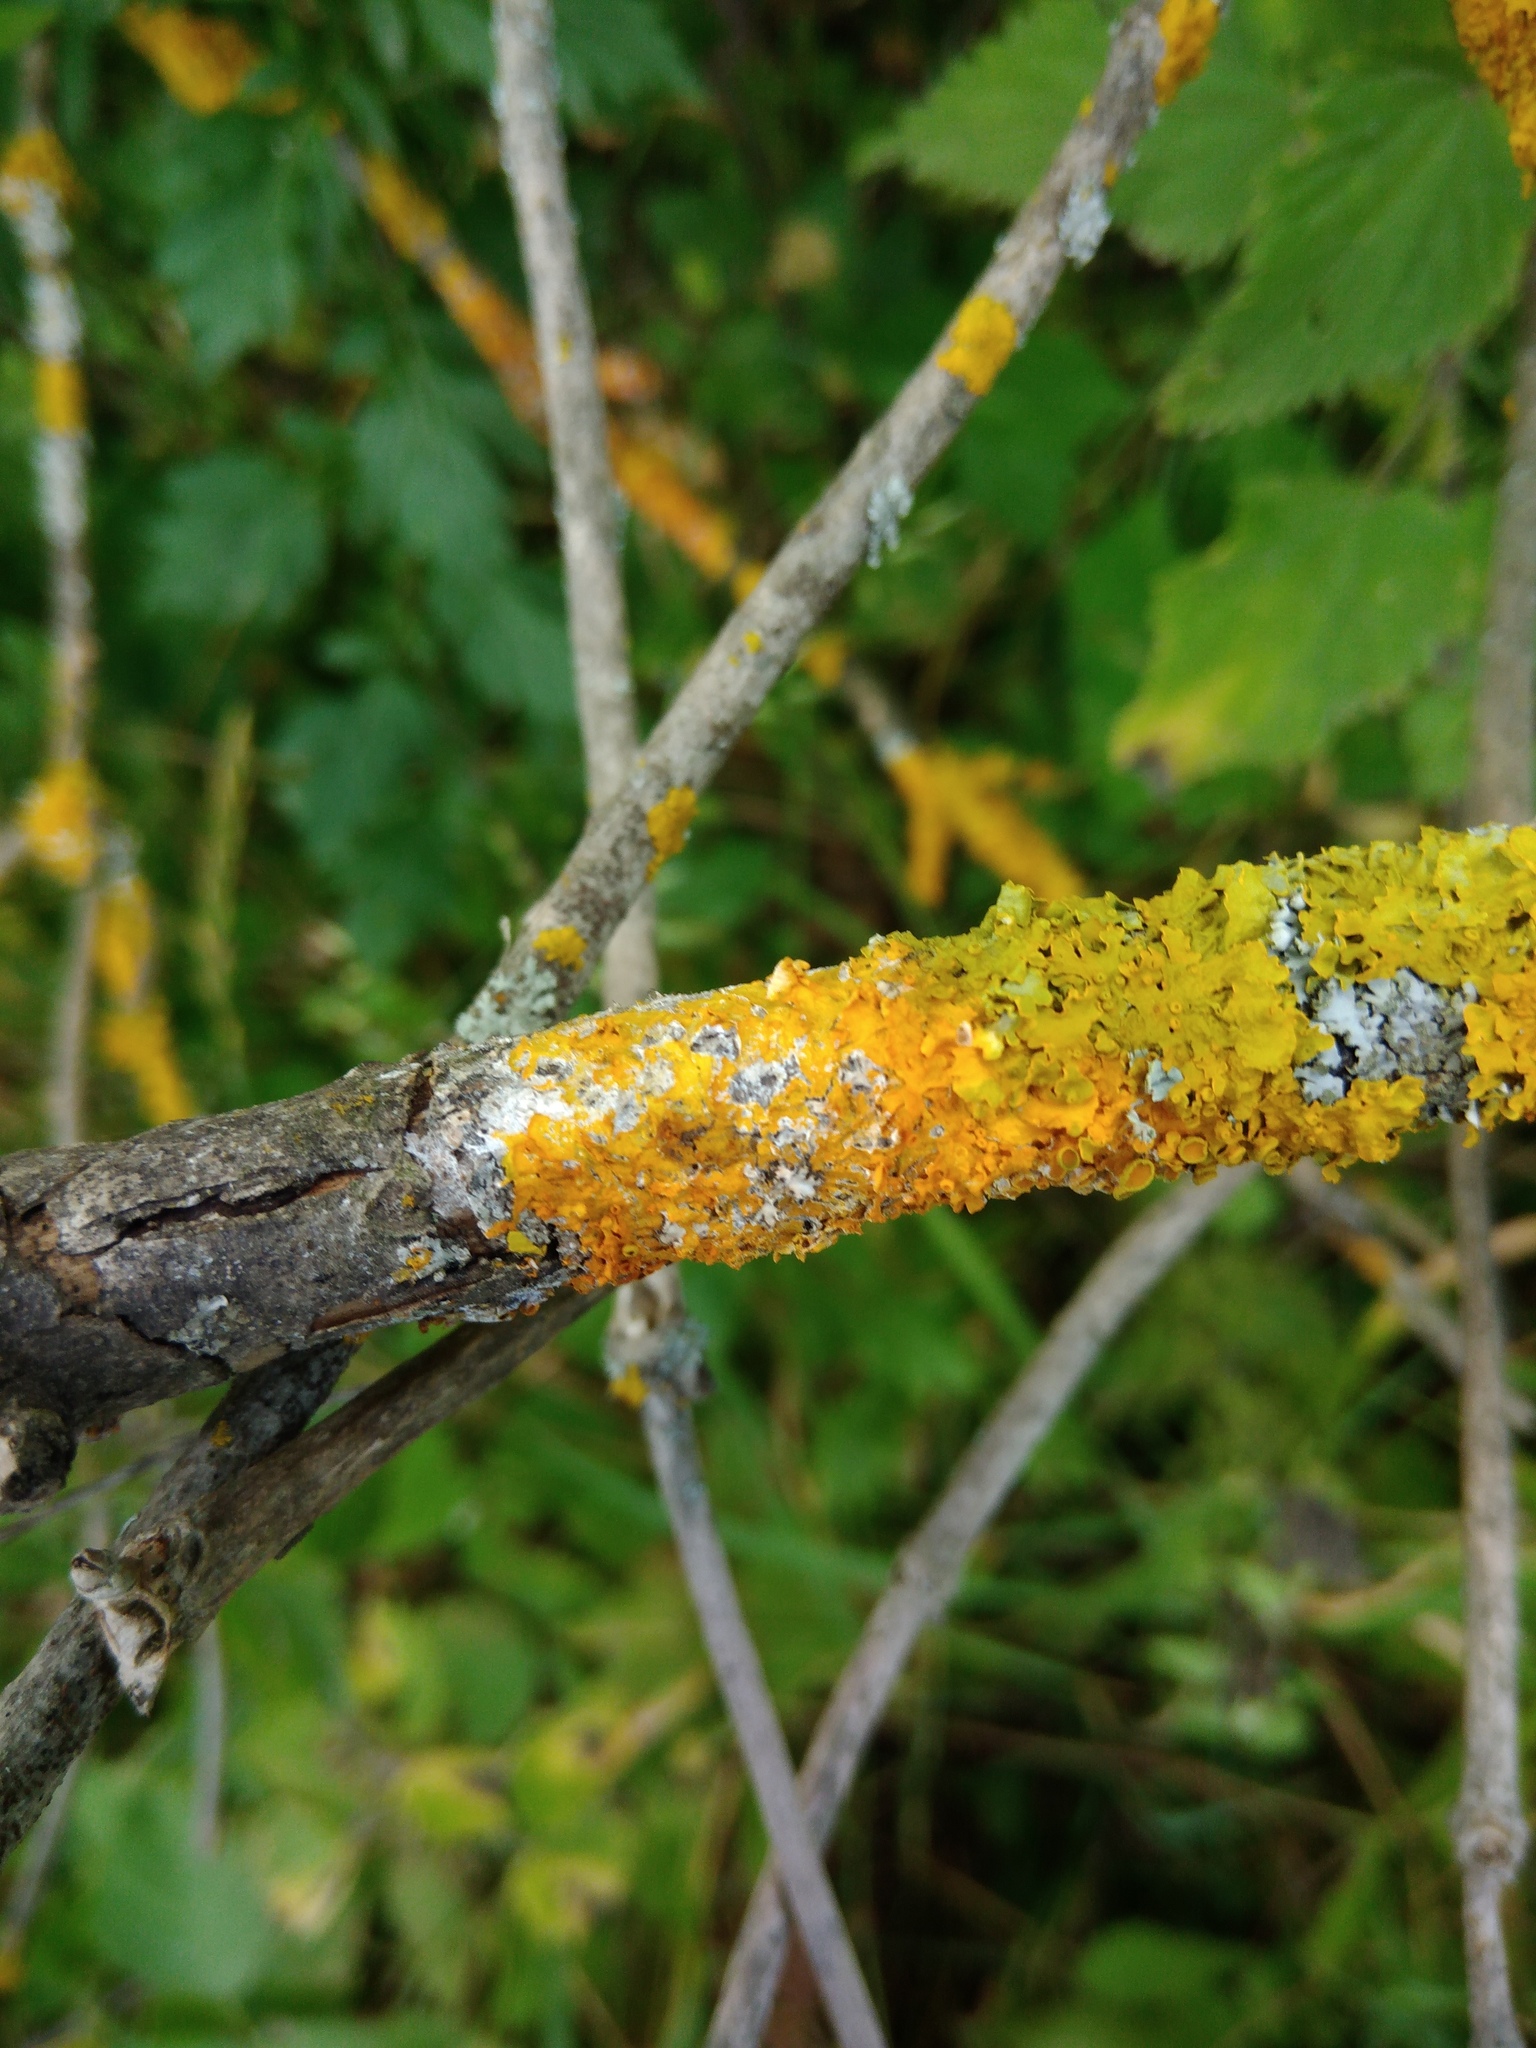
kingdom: Fungi
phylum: Basidiomycota
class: Agaricomycetes
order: Atheliales
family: Atheliaceae
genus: Athelia
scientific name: Athelia arachnoidea
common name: Candelabra duster
